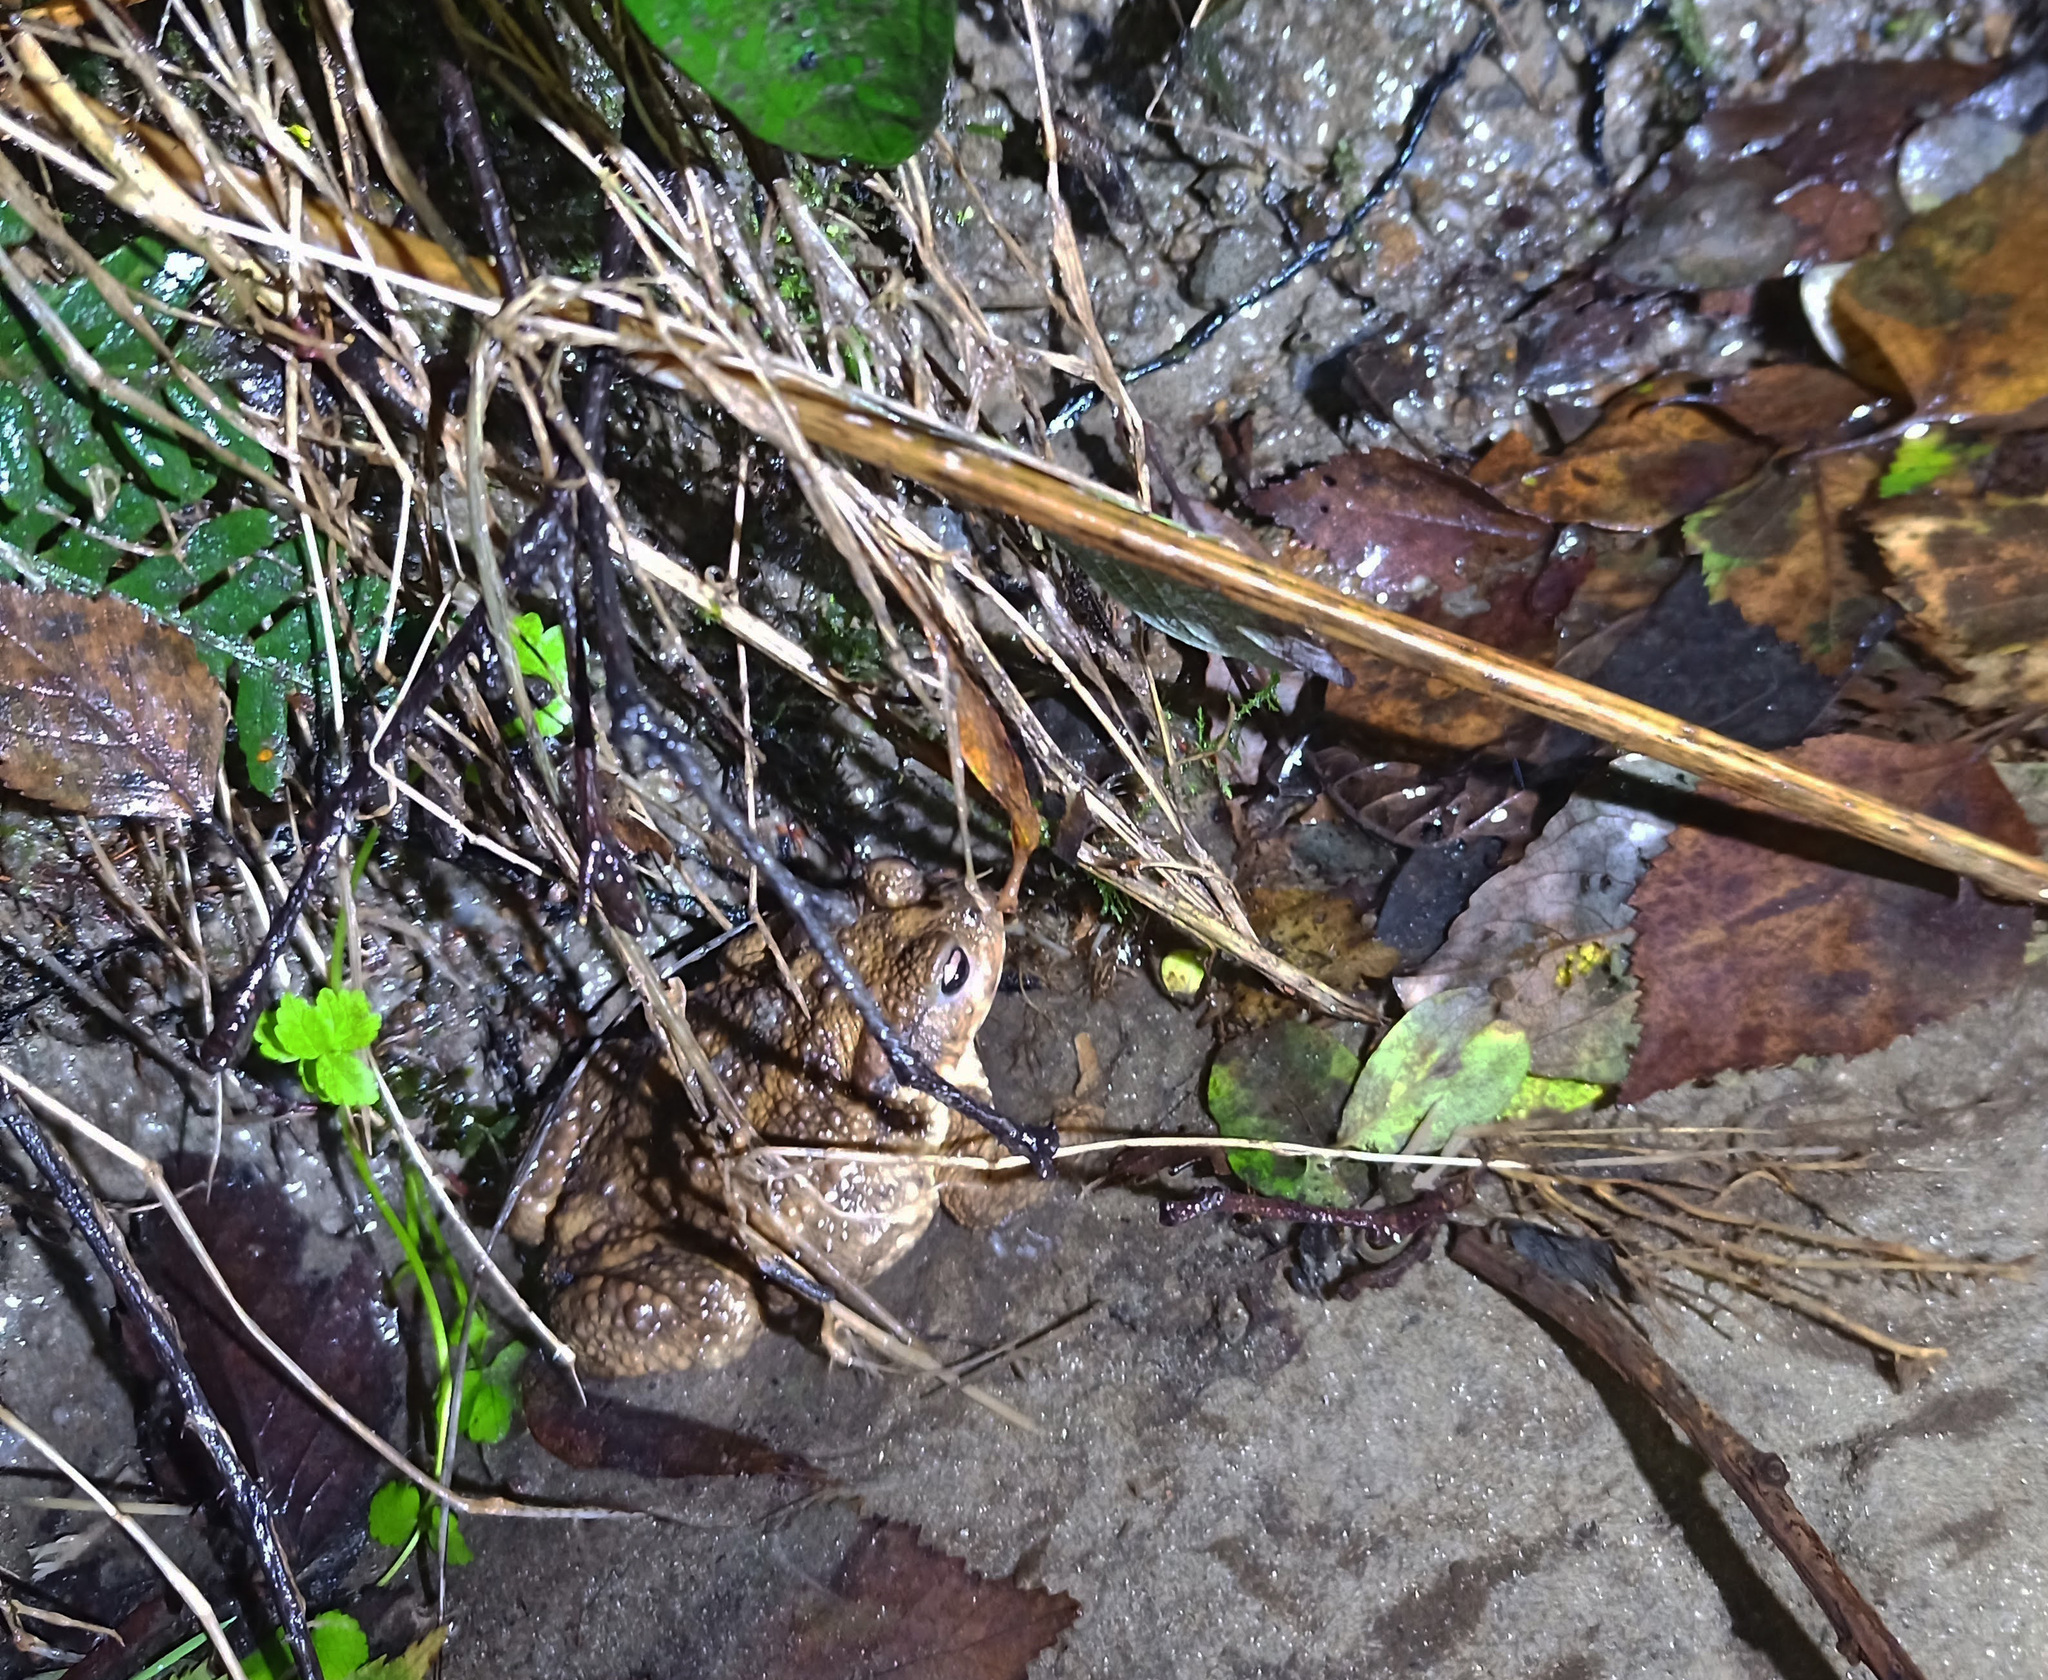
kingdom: Animalia
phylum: Chordata
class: Amphibia
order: Anura
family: Bufonidae
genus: Bufo
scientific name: Bufo spinosus
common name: Western common toad
